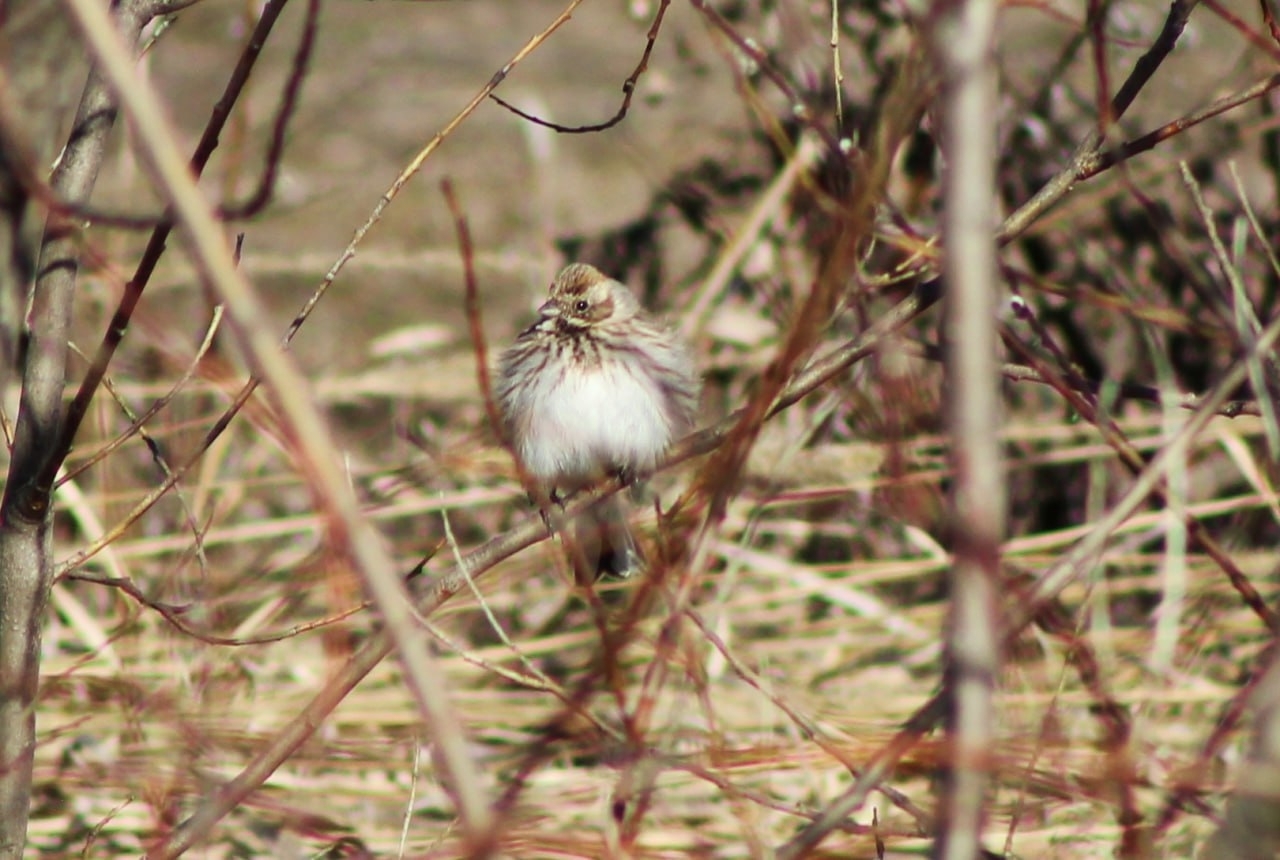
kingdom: Animalia
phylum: Chordata
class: Aves
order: Passeriformes
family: Emberizidae
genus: Emberiza
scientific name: Emberiza schoeniclus
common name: Reed bunting
